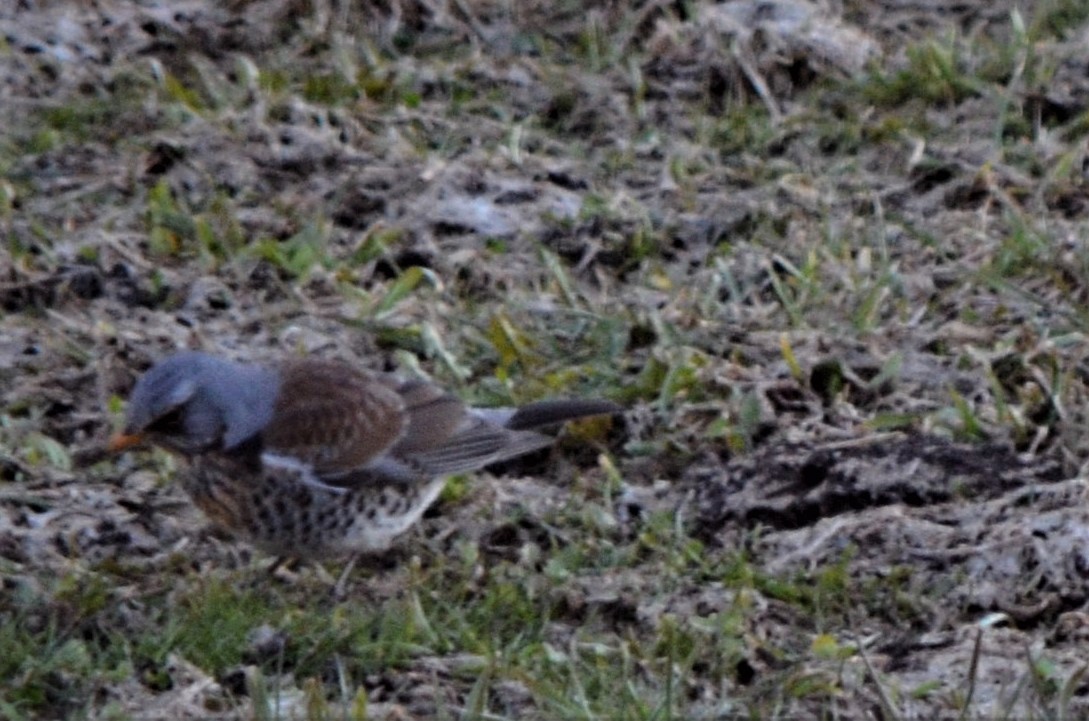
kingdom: Animalia
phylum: Chordata
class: Aves
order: Passeriformes
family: Turdidae
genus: Turdus
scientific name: Turdus pilaris
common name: Fieldfare
